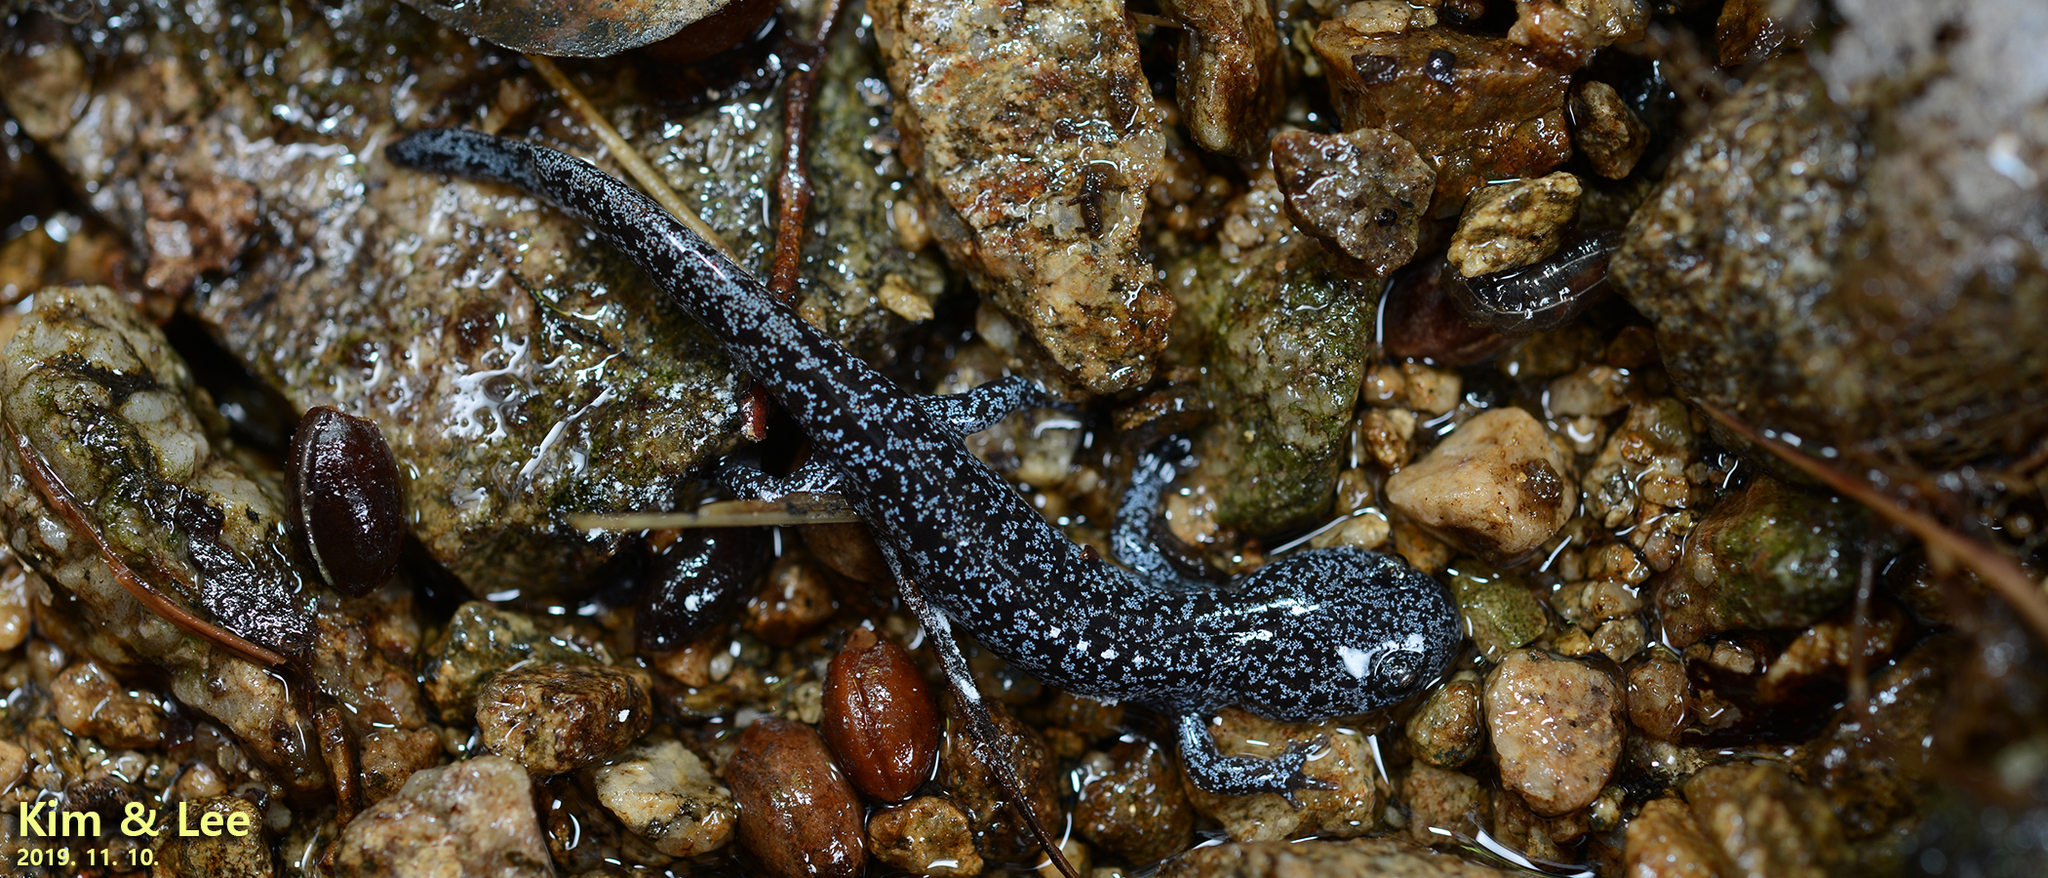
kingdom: Animalia
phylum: Chordata
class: Amphibia
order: Caudata
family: Hynobiidae
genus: Hynobius
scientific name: Hynobius leechii
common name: Gensan salamander
